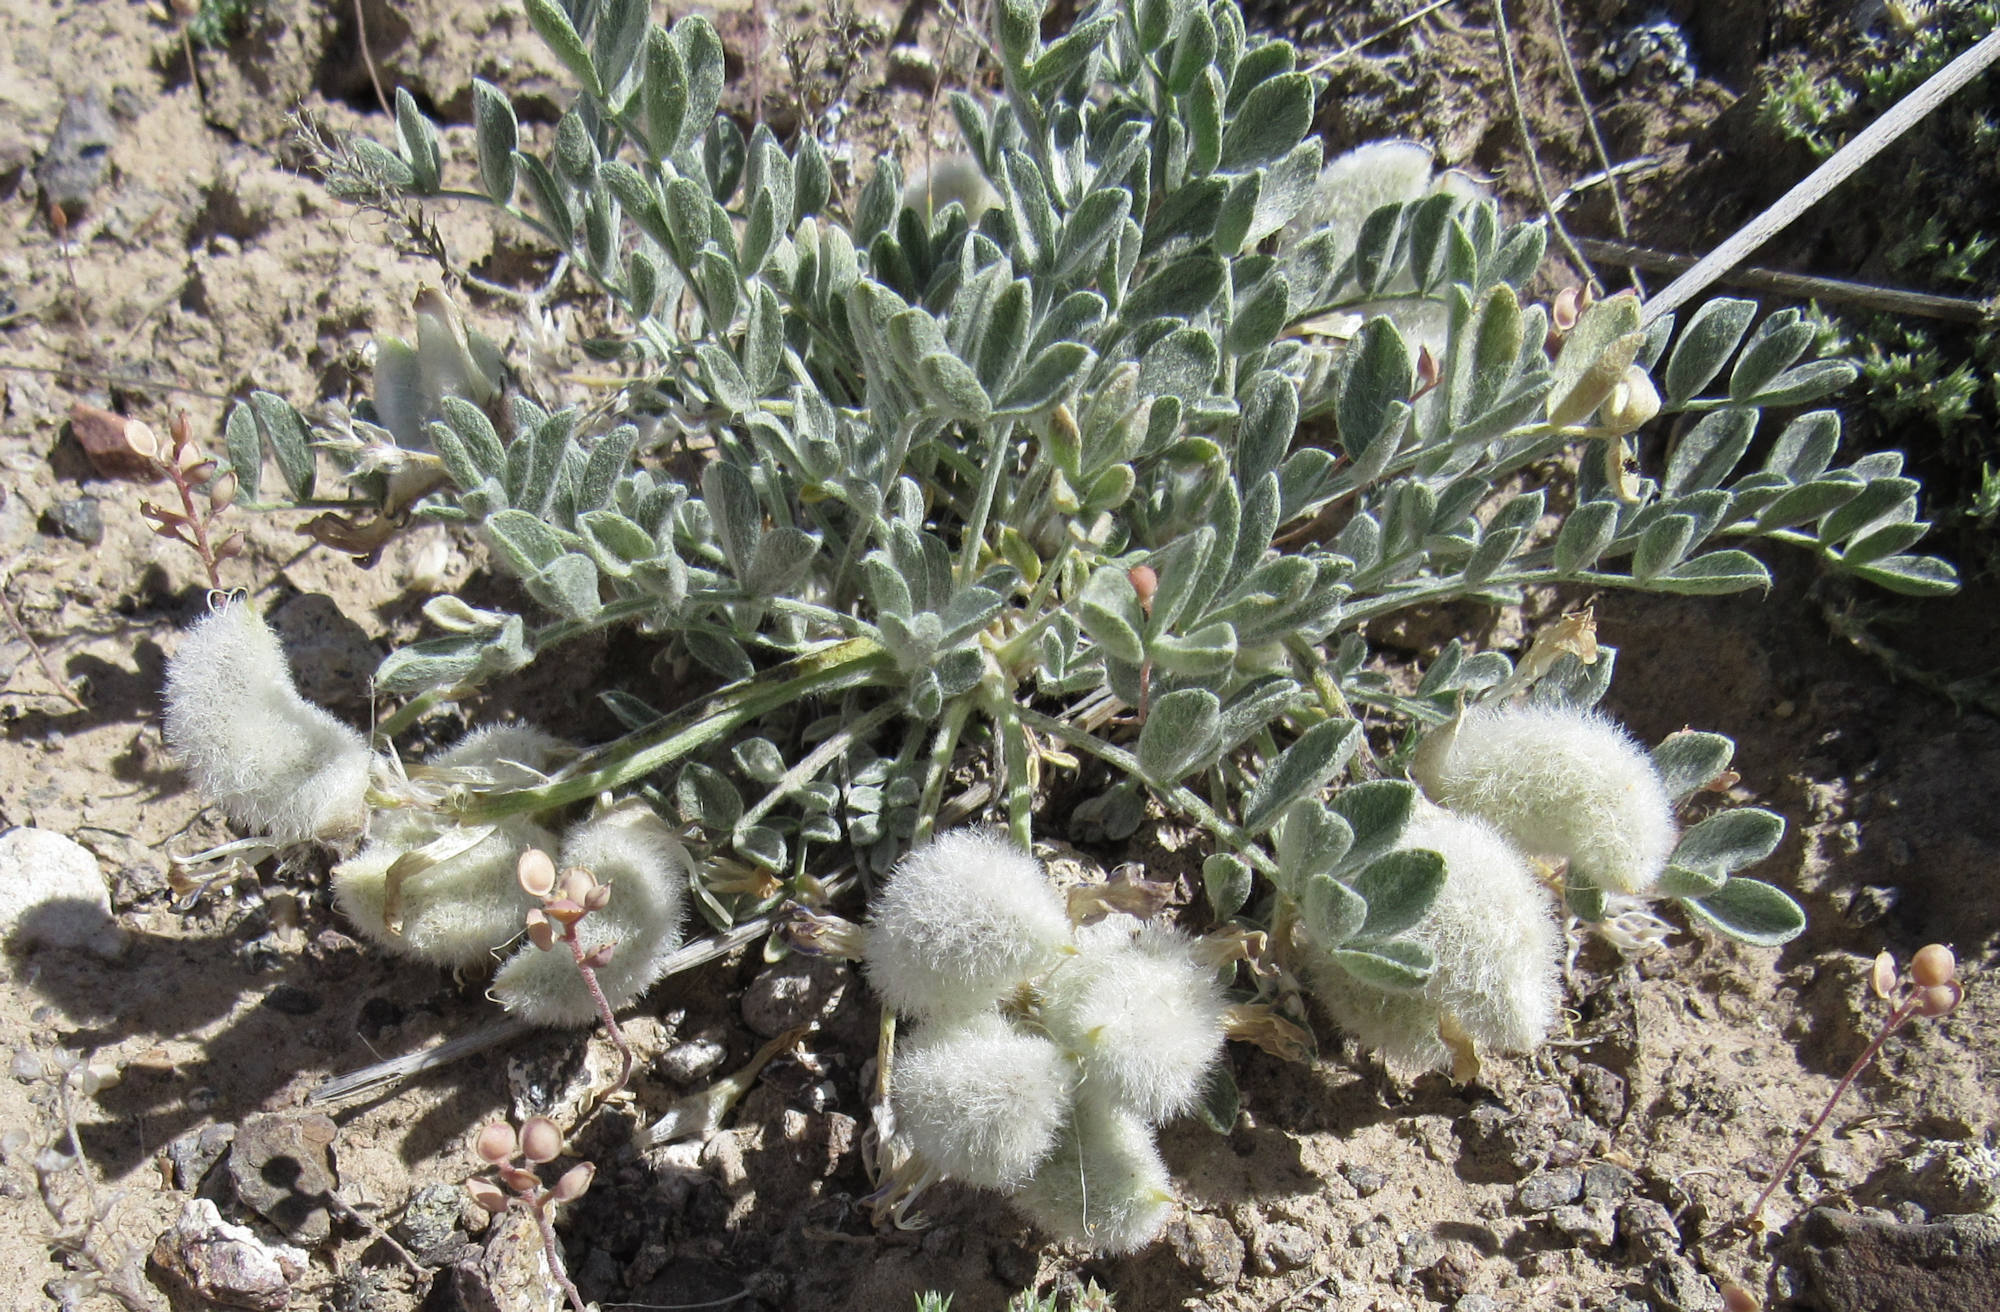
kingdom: Plantae
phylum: Tracheophyta
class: Magnoliopsida
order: Fabales
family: Fabaceae
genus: Astragalus
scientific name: Astragalus purshii
